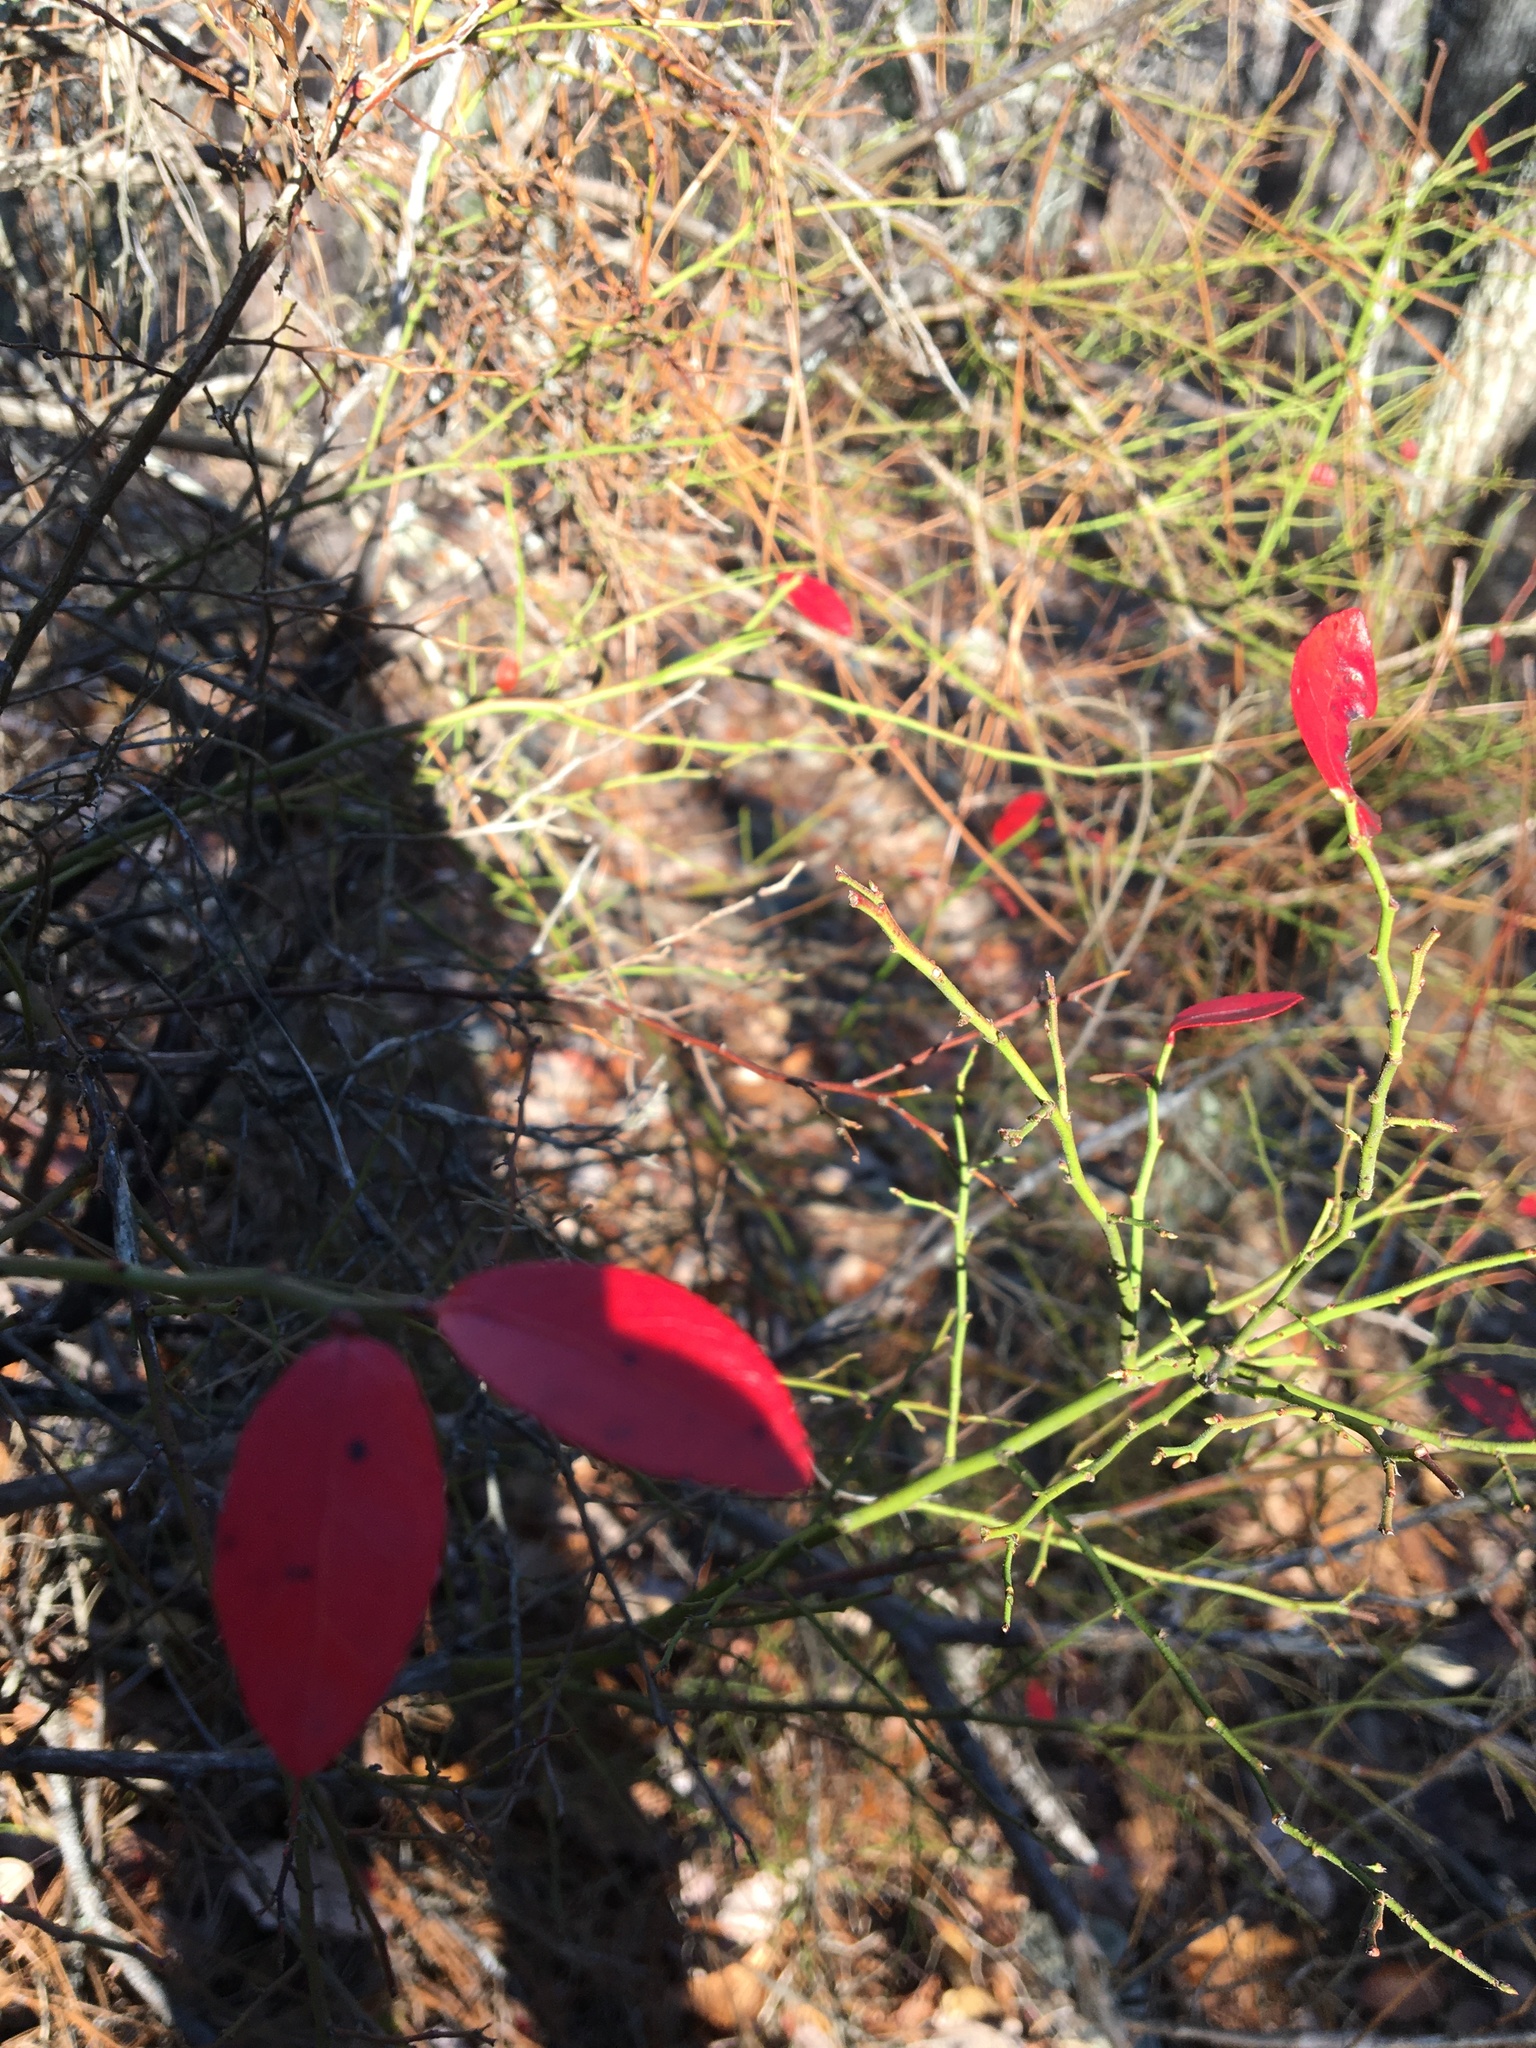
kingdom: Plantae
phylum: Tracheophyta
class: Magnoliopsida
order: Ericales
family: Ericaceae
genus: Vaccinium
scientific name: Vaccinium corymbosum
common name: Blueberry
